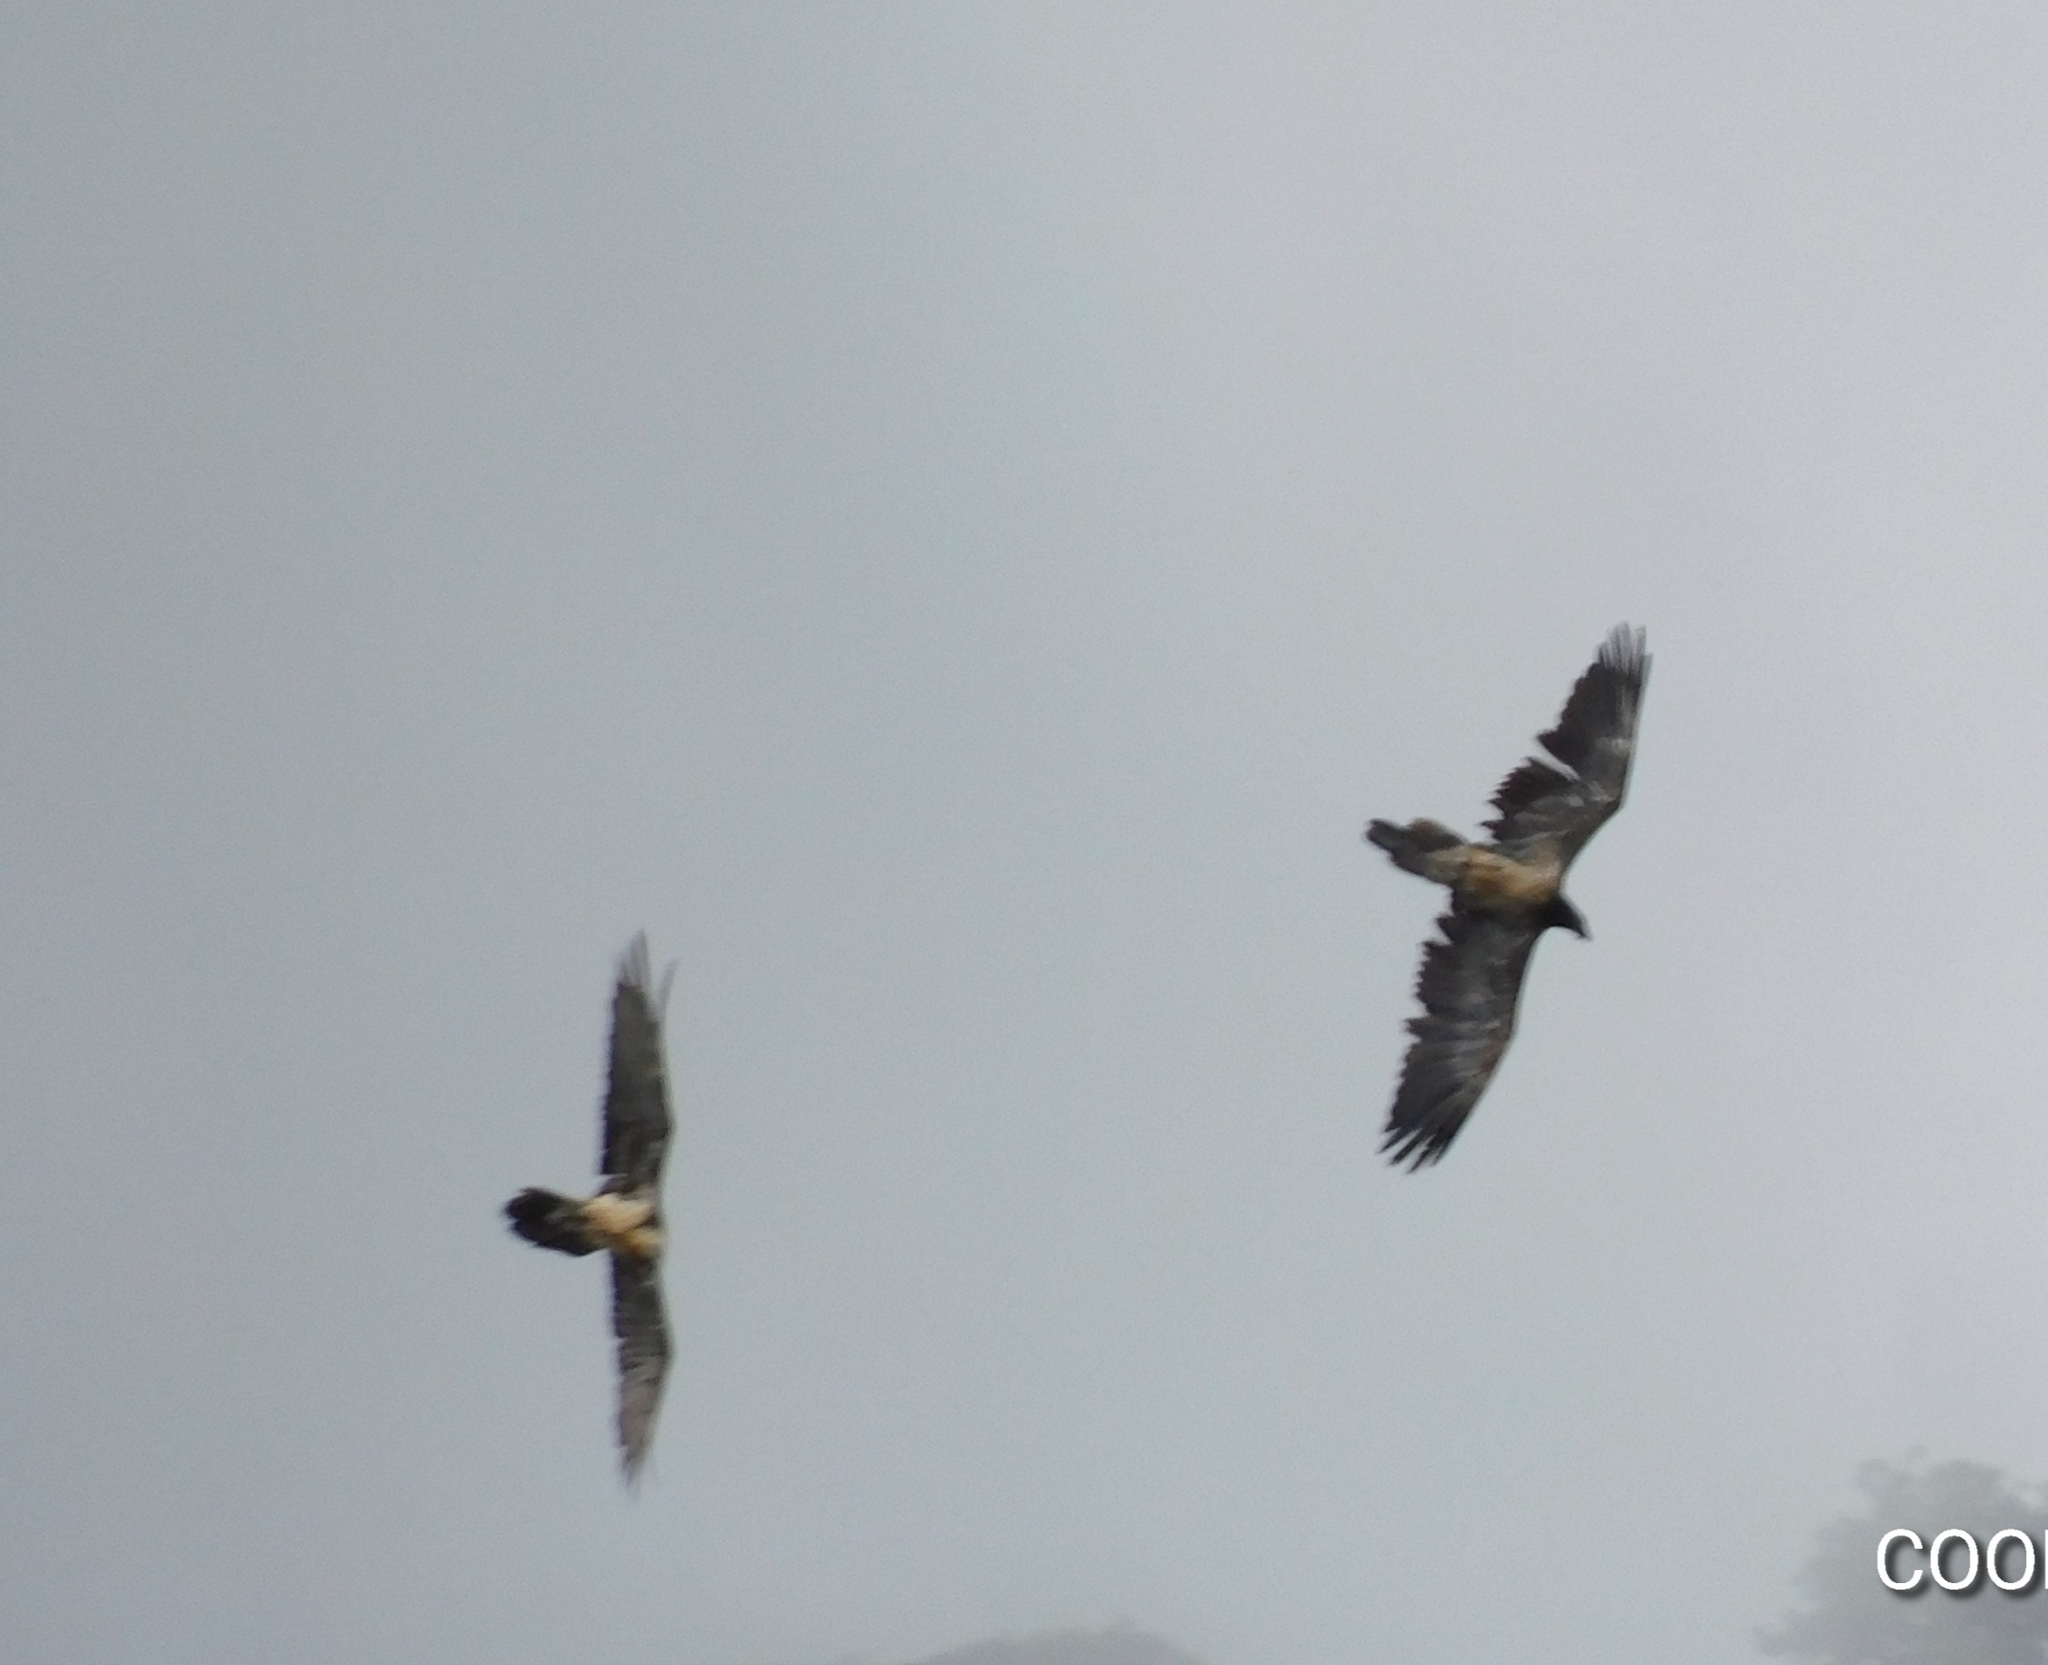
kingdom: Animalia
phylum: Chordata
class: Aves
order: Accipitriformes
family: Accipitridae
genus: Gypaetus
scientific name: Gypaetus barbatus
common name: Bearded vulture
